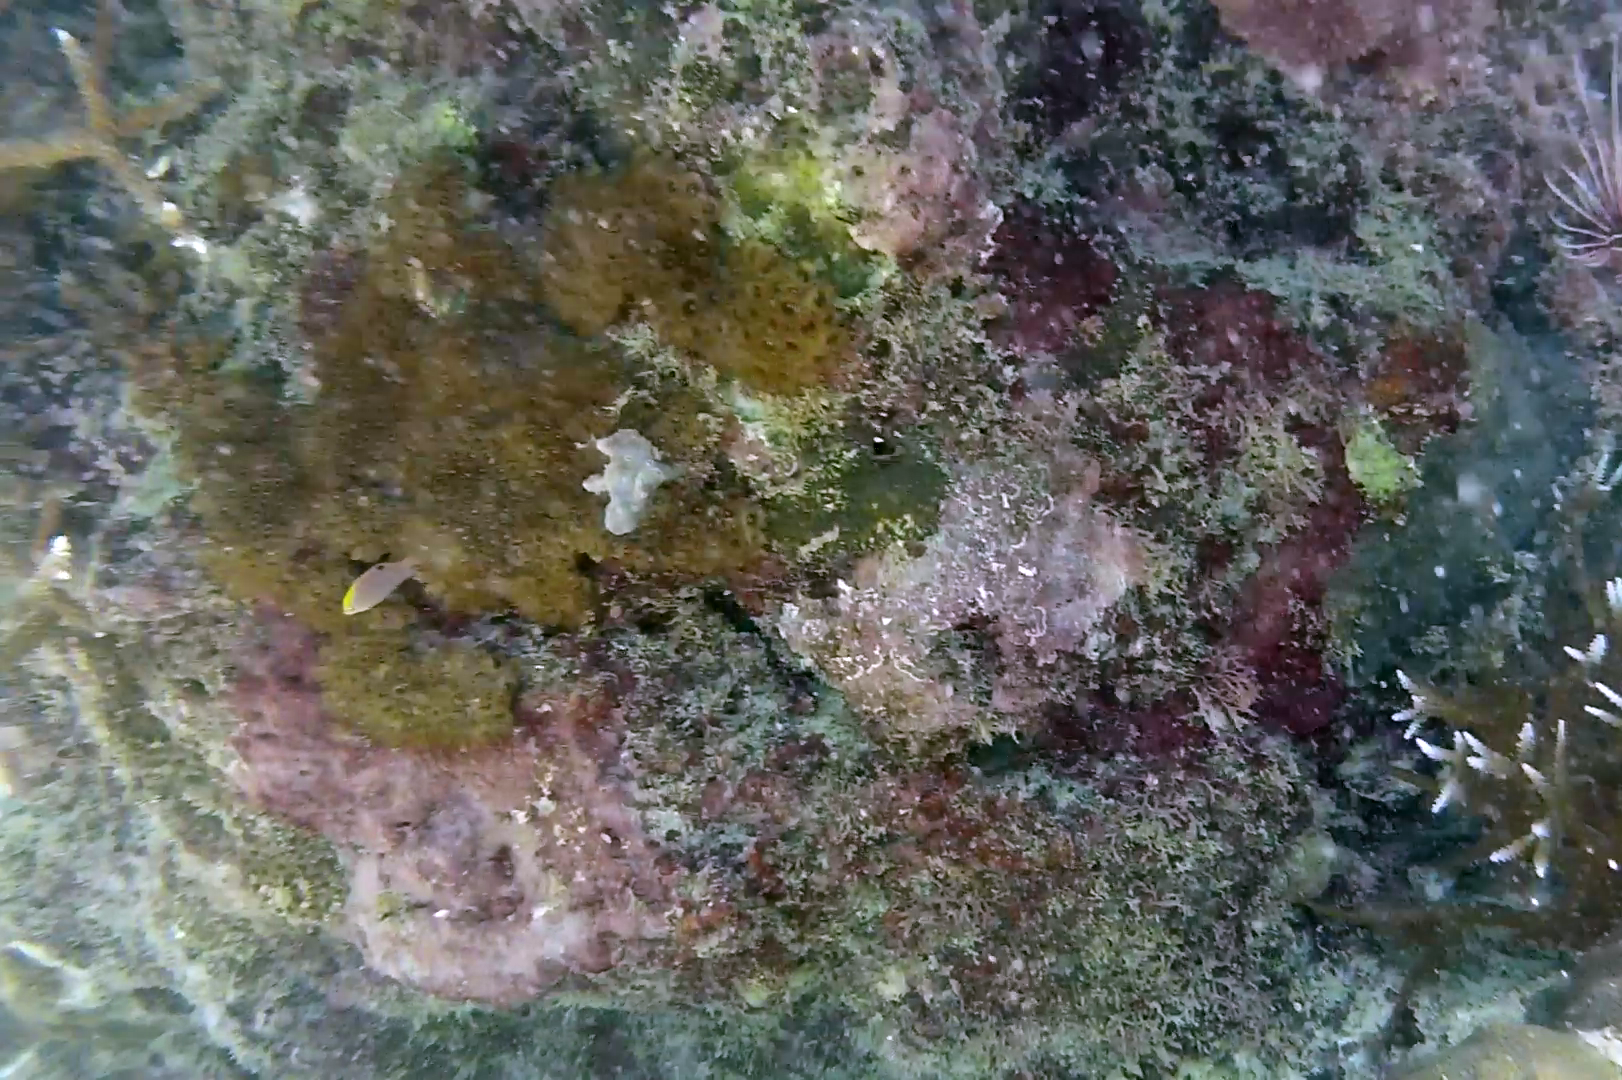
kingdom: Animalia
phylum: Chordata
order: Perciformes
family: Pomacentridae
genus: Chrysiptera
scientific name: Chrysiptera talboti
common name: Talbot's demoiselle
